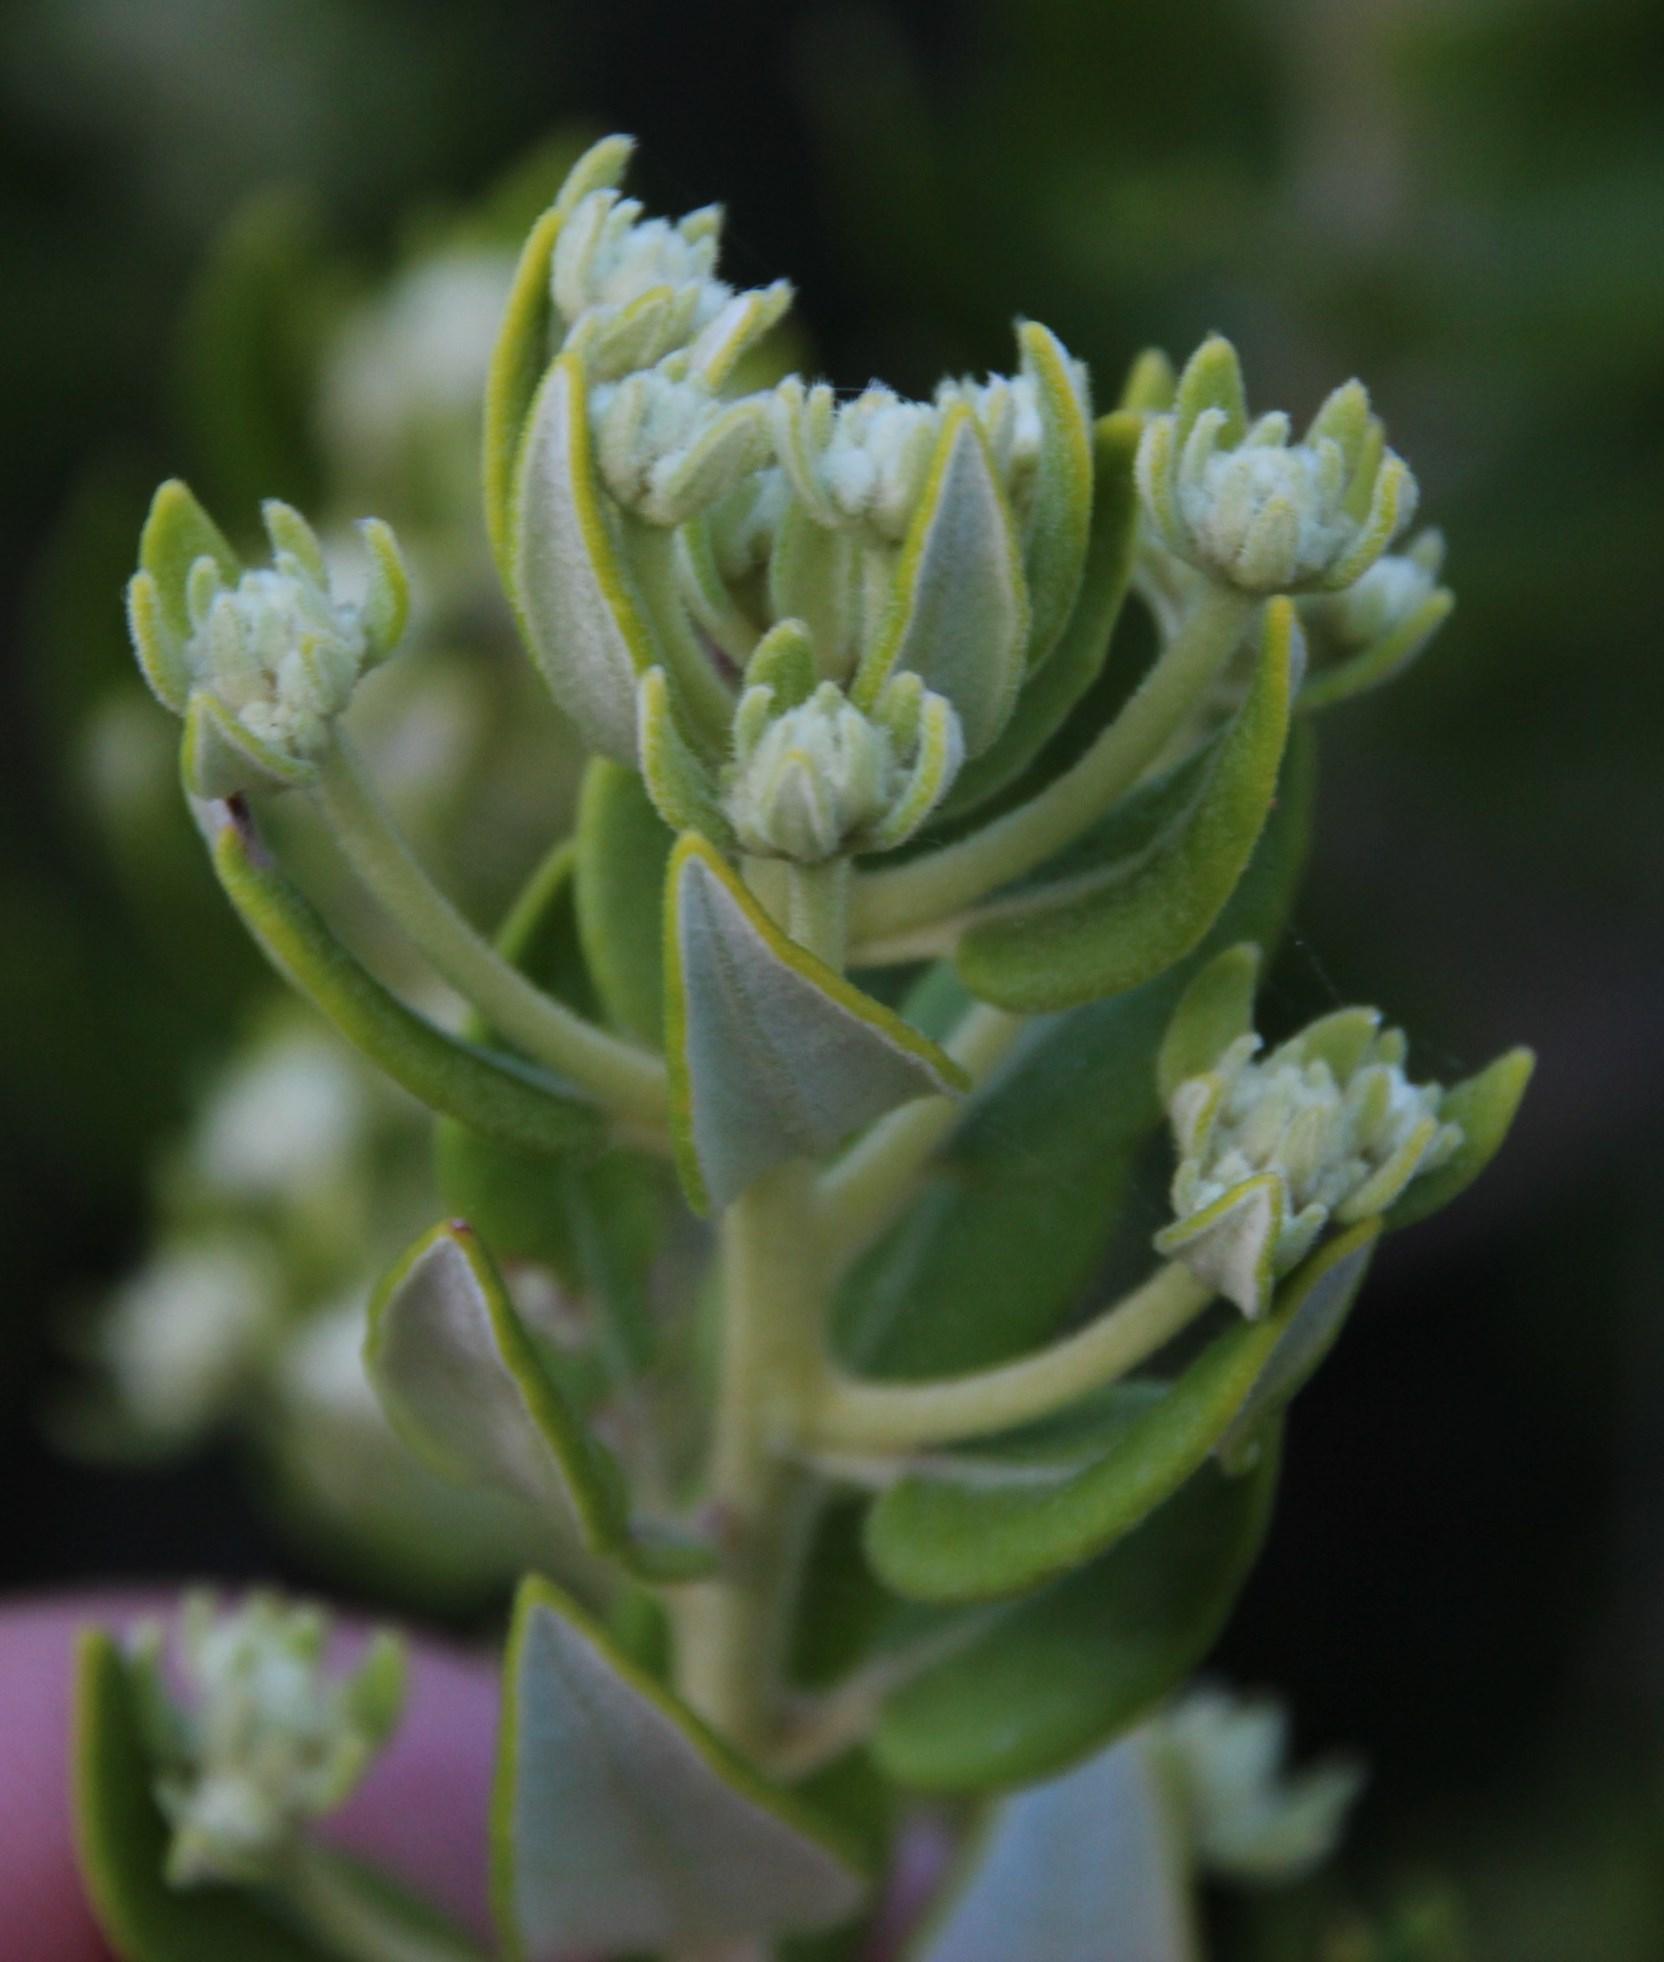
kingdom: Plantae
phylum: Tracheophyta
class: Magnoliopsida
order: Rosales
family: Rhamnaceae
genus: Phylica
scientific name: Phylica buxifolia
